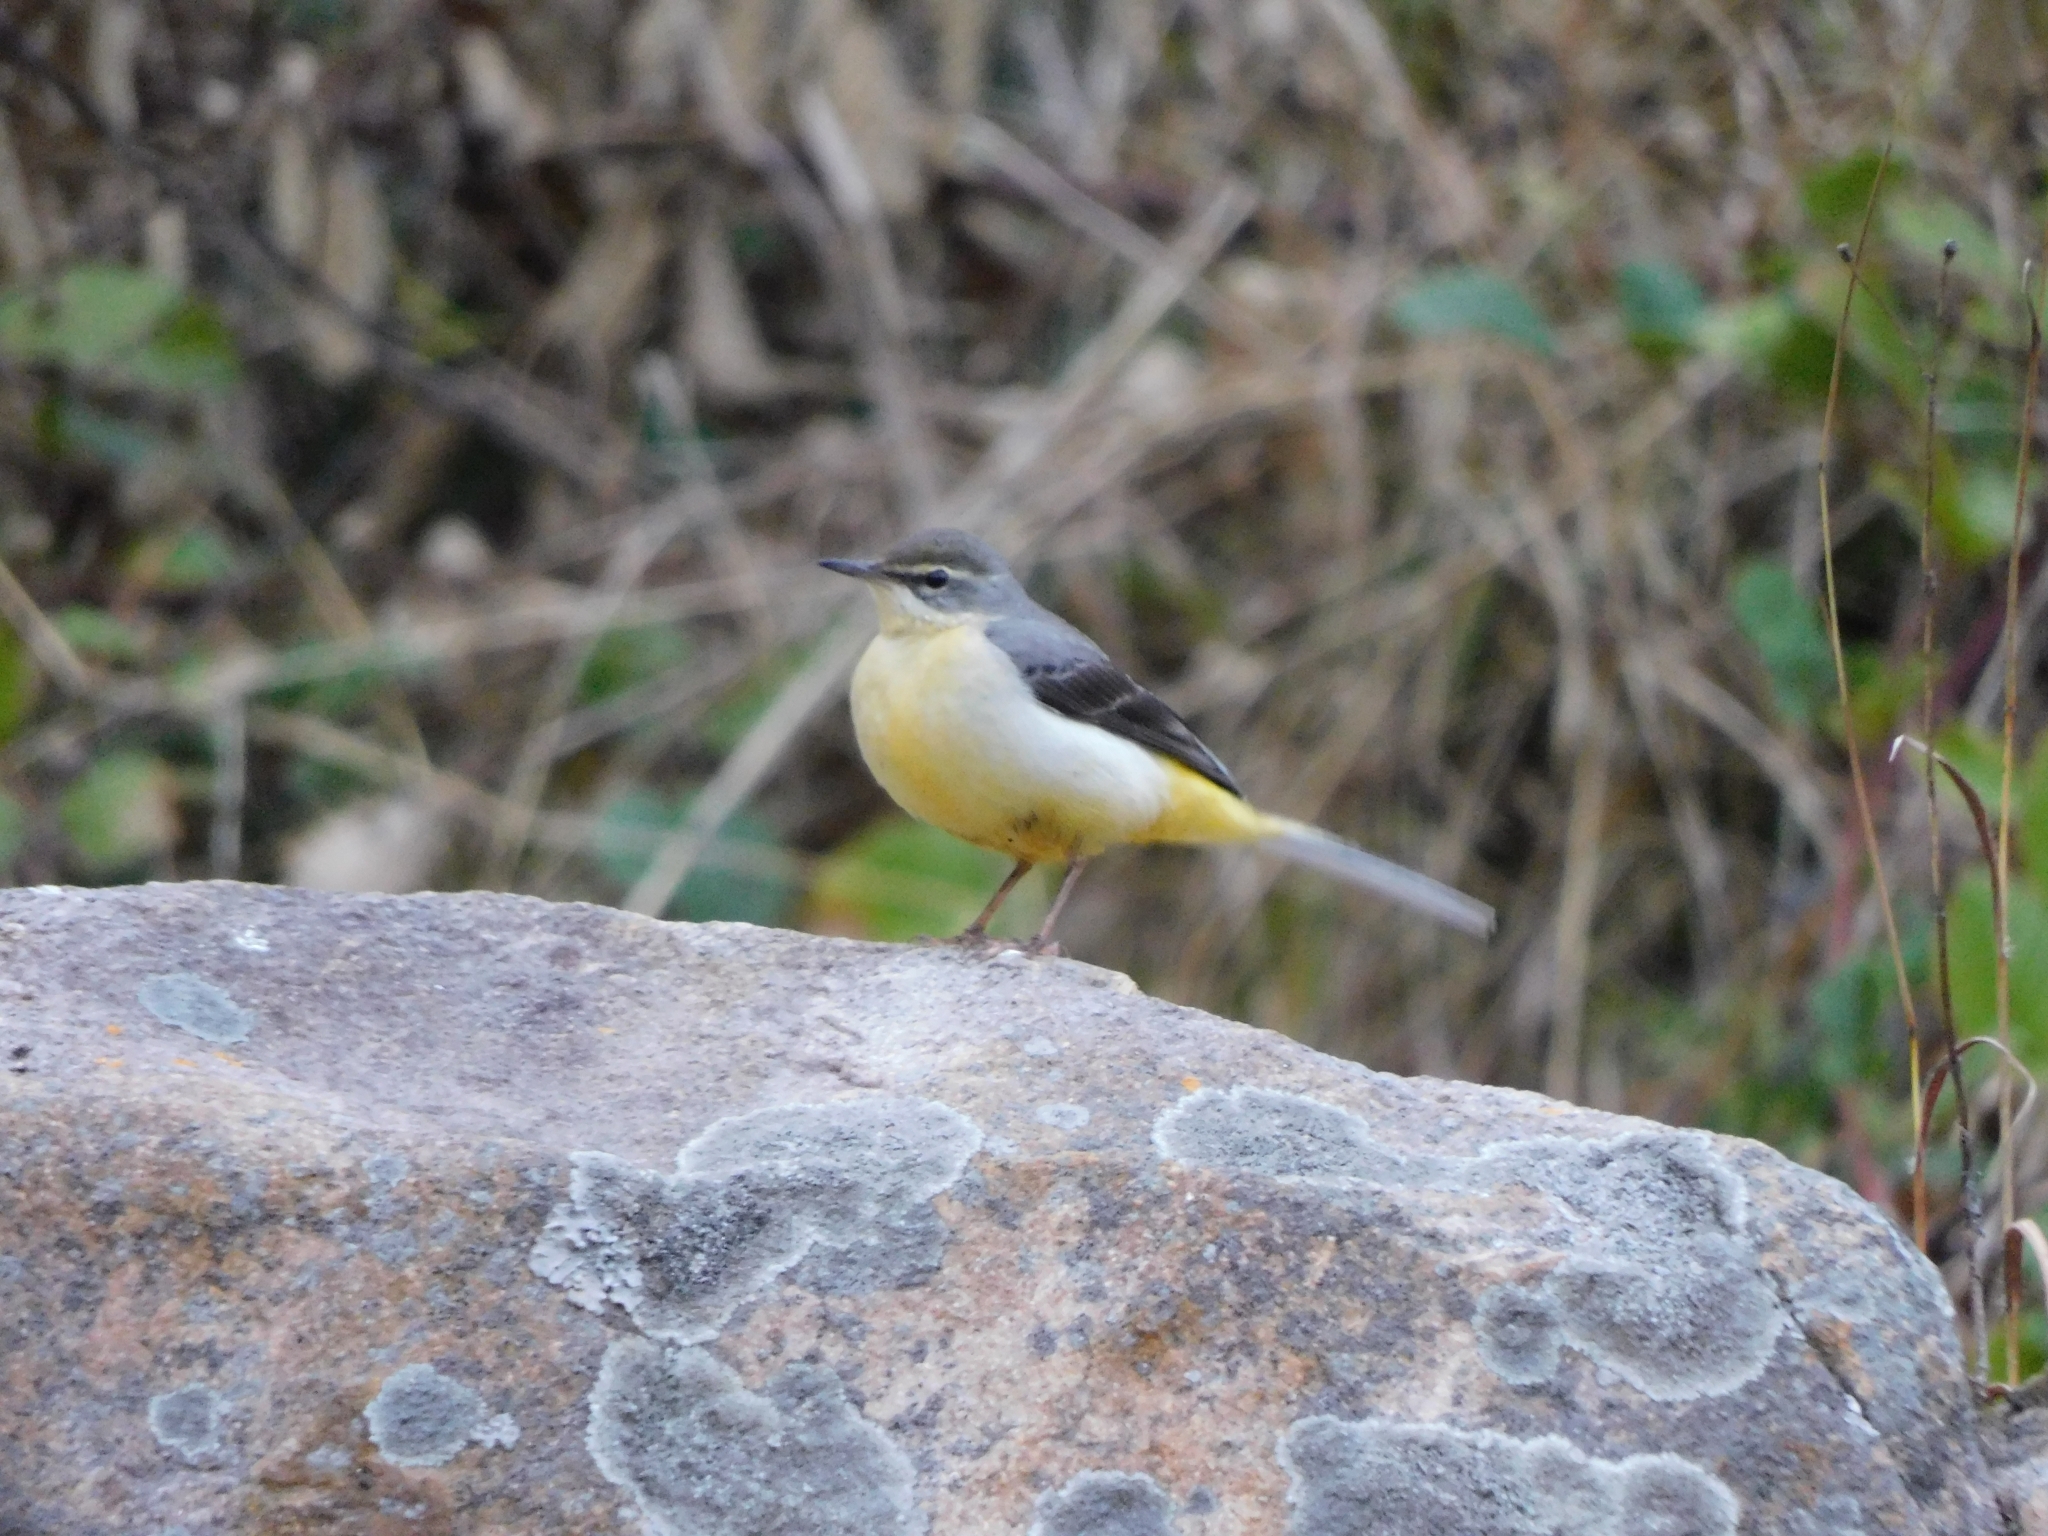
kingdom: Animalia
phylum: Chordata
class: Aves
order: Passeriformes
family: Motacillidae
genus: Motacilla
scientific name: Motacilla cinerea
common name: Grey wagtail
